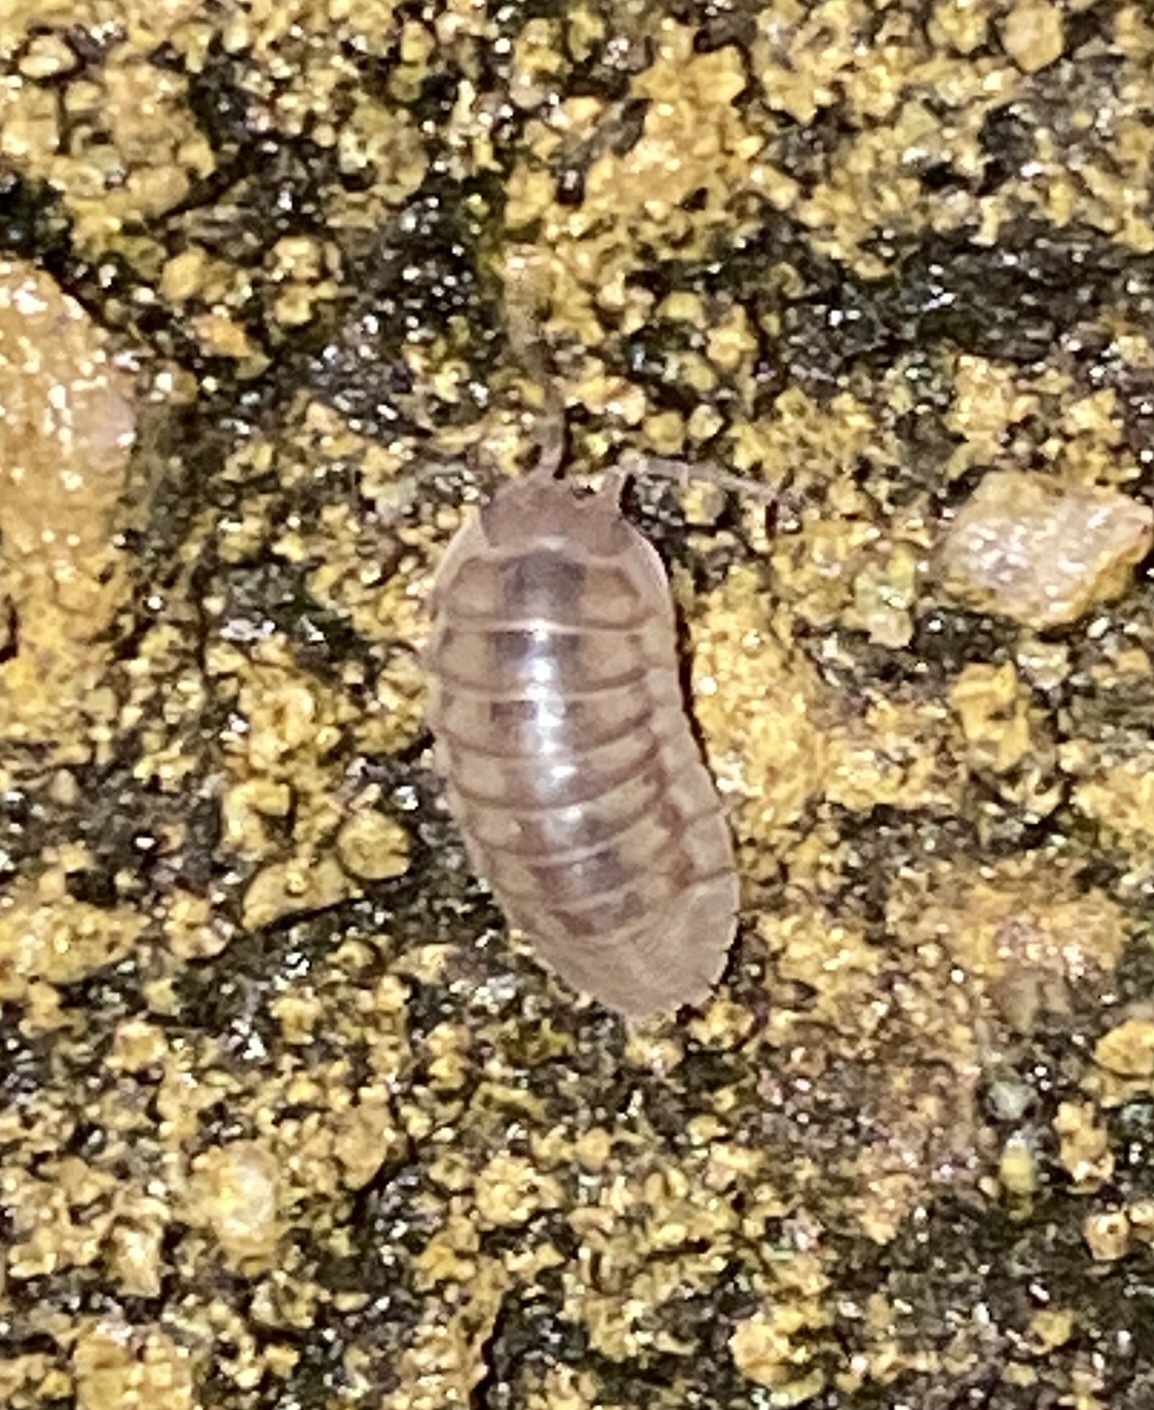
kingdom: Animalia
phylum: Arthropoda
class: Malacostraca
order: Isopoda
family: Armadillidiidae
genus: Armadillidium
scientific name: Armadillidium nasatum
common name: Isopod
